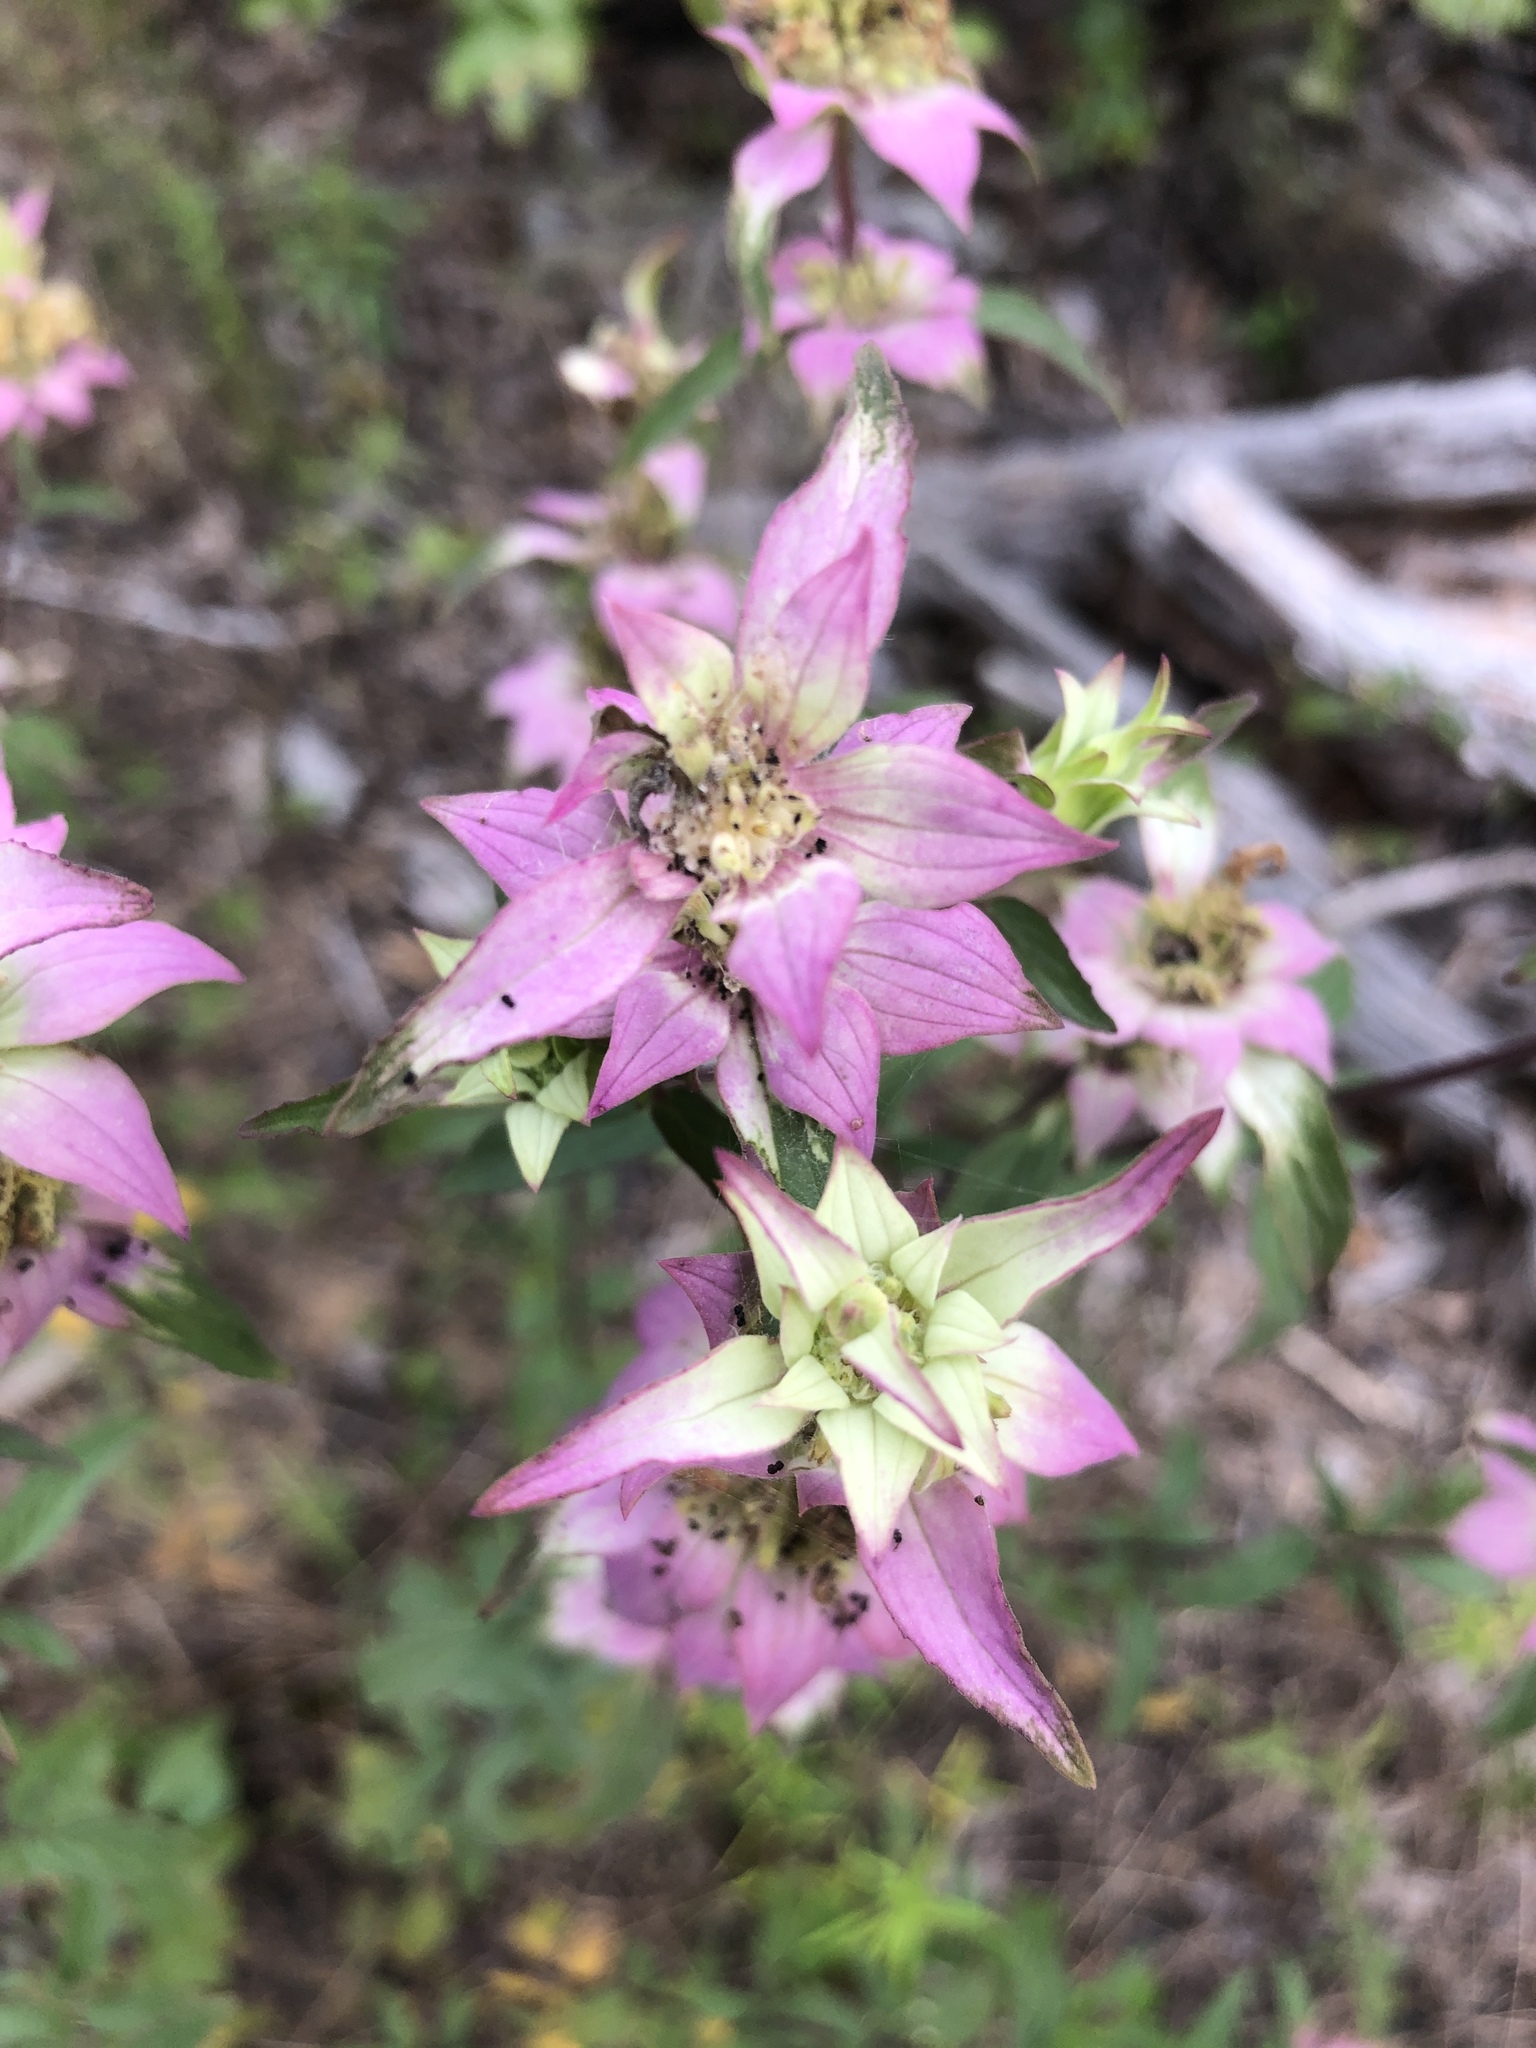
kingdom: Plantae
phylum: Tracheophyta
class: Magnoliopsida
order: Lamiales
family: Lamiaceae
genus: Monarda
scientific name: Monarda punctata
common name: Dotted monarda
